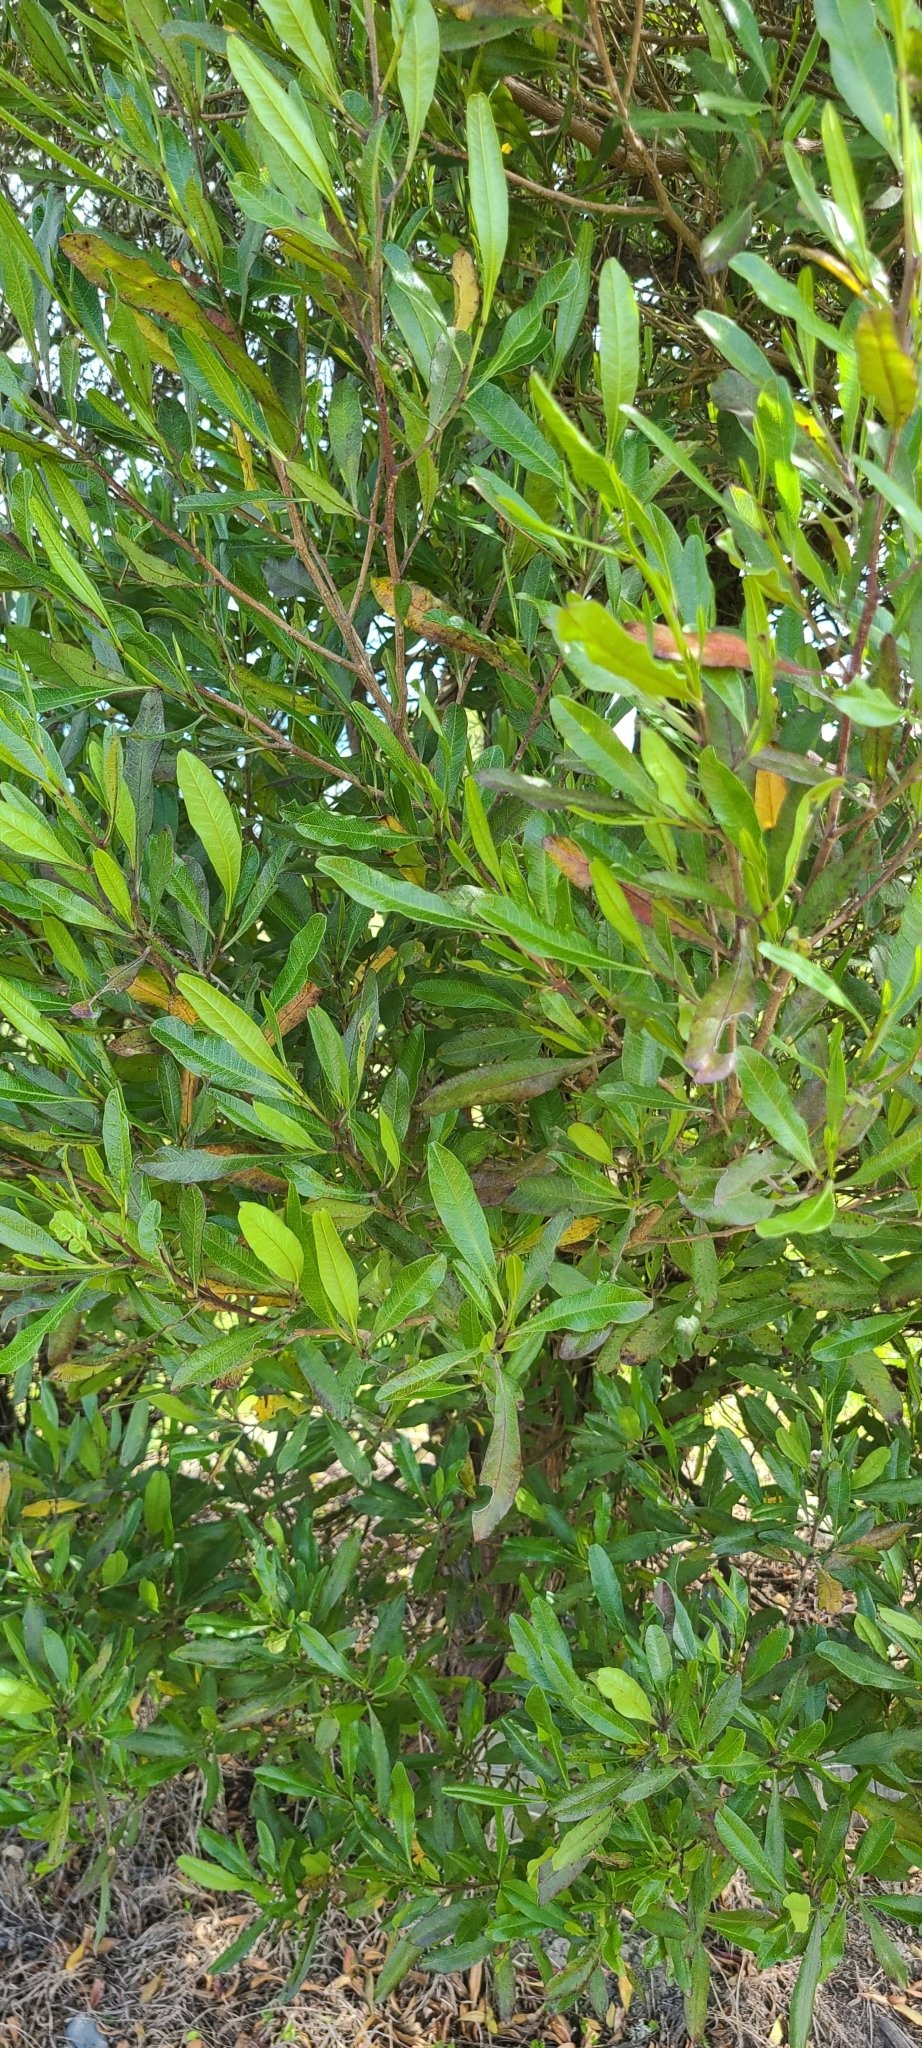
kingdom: Plantae
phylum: Tracheophyta
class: Magnoliopsida
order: Sapindales
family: Sapindaceae
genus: Dodonaea
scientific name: Dodonaea viscosa
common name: Hopbush
